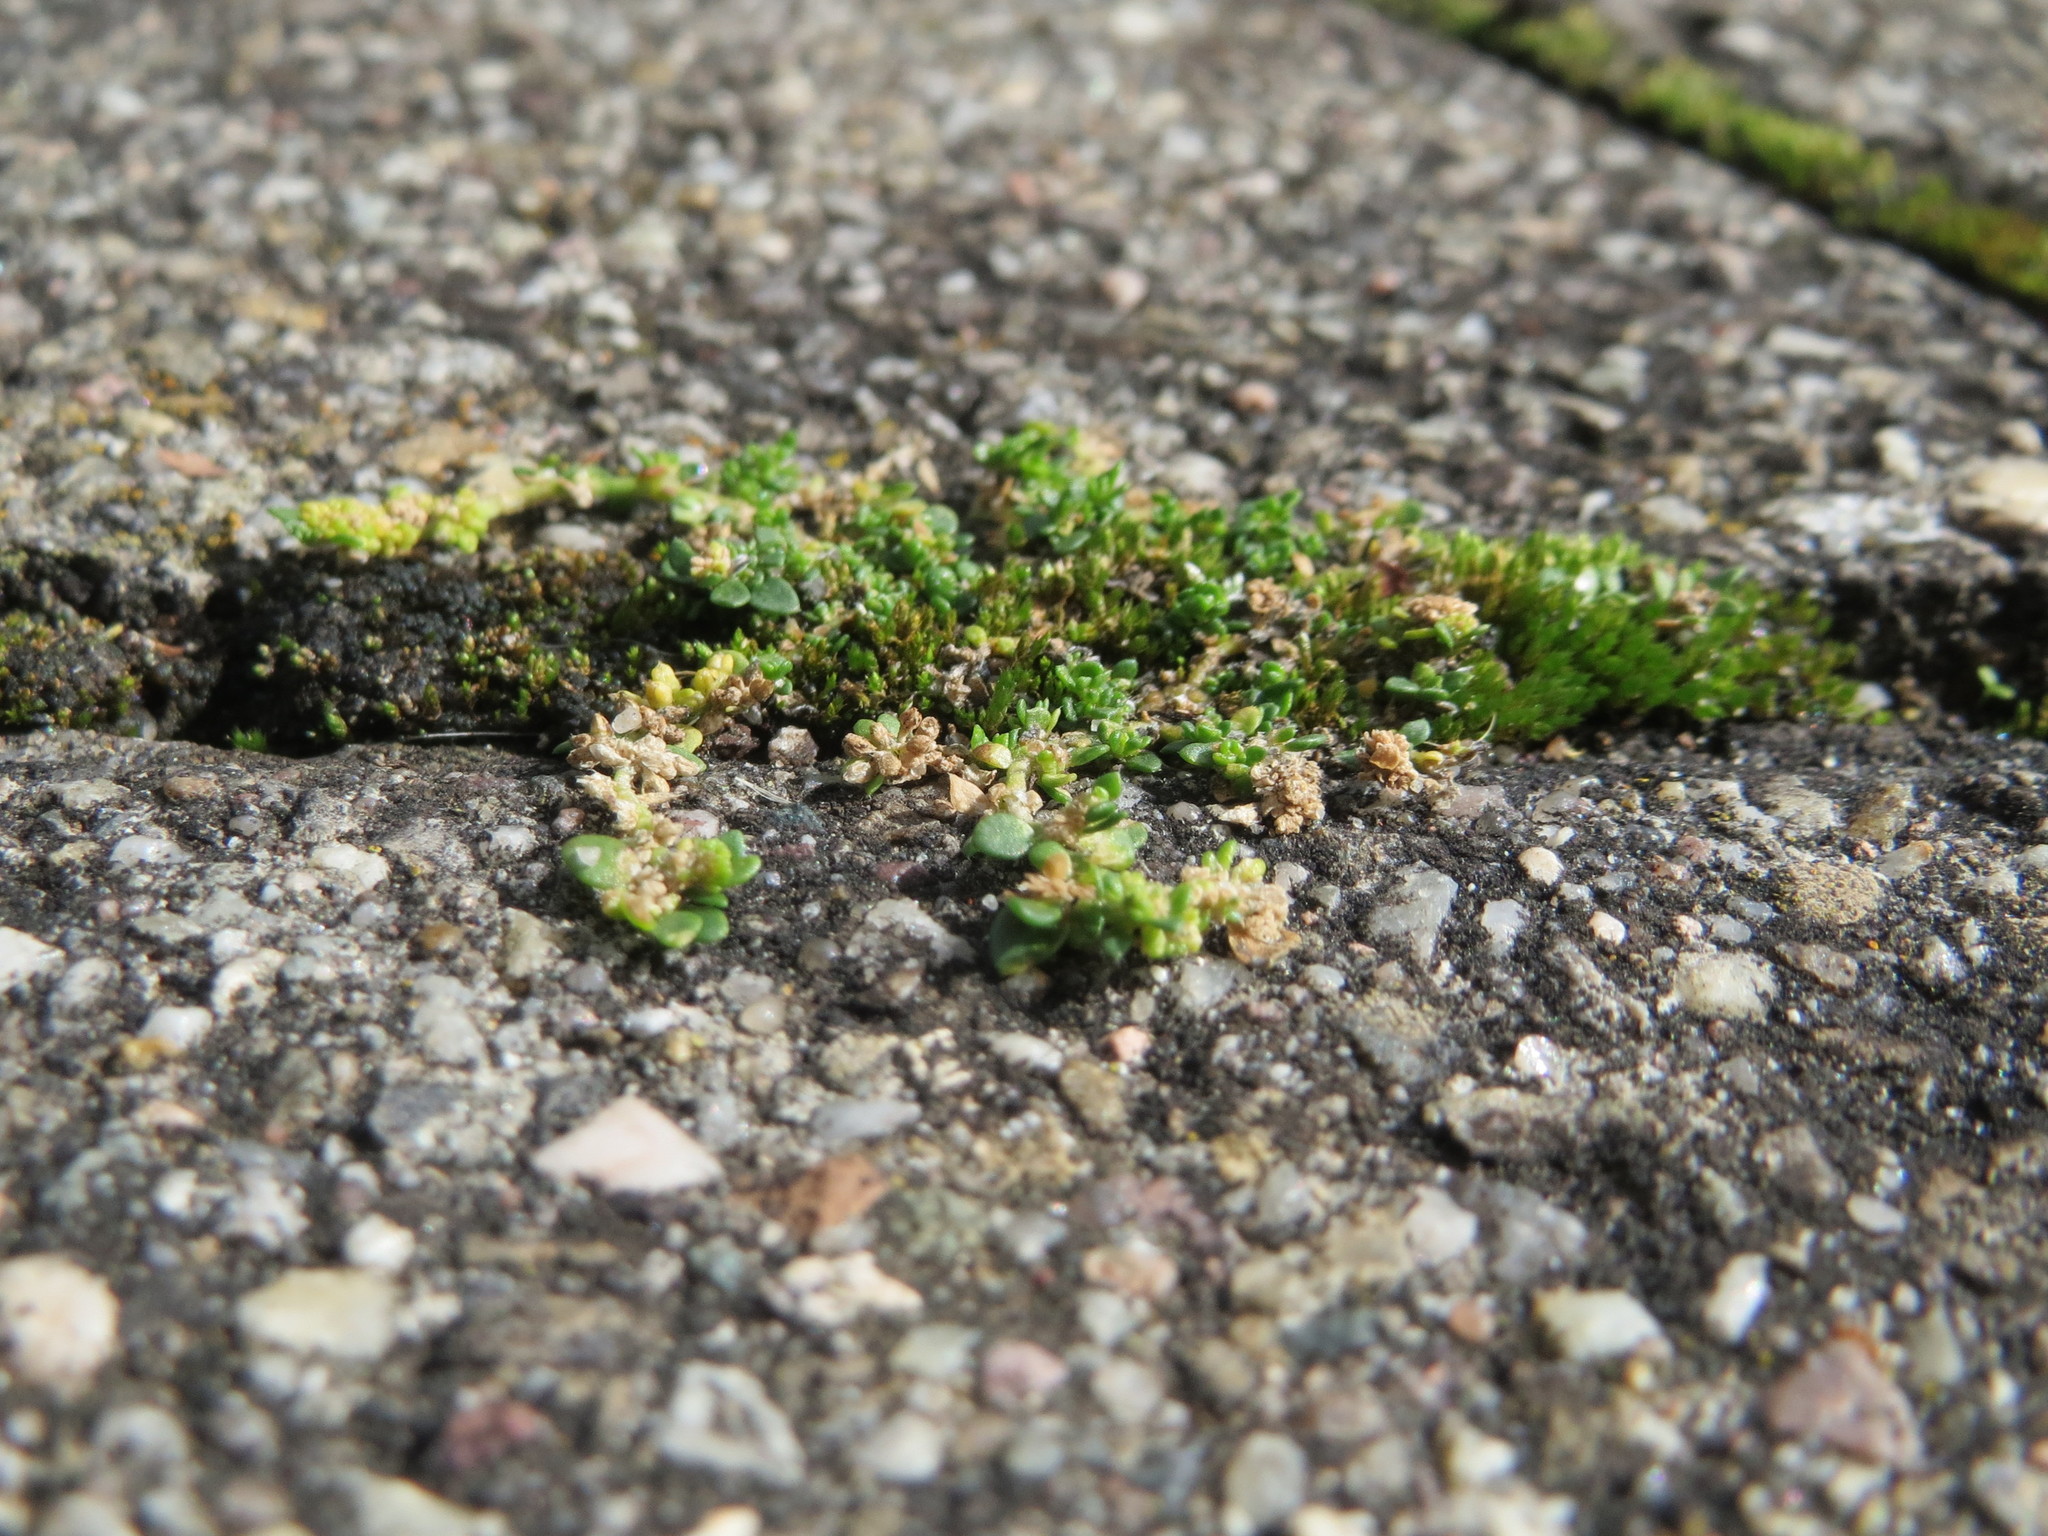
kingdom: Plantae
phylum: Tracheophyta
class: Magnoliopsida
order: Caryophyllales
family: Caryophyllaceae
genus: Herniaria
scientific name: Herniaria glabra
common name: Smooth rupturewort
